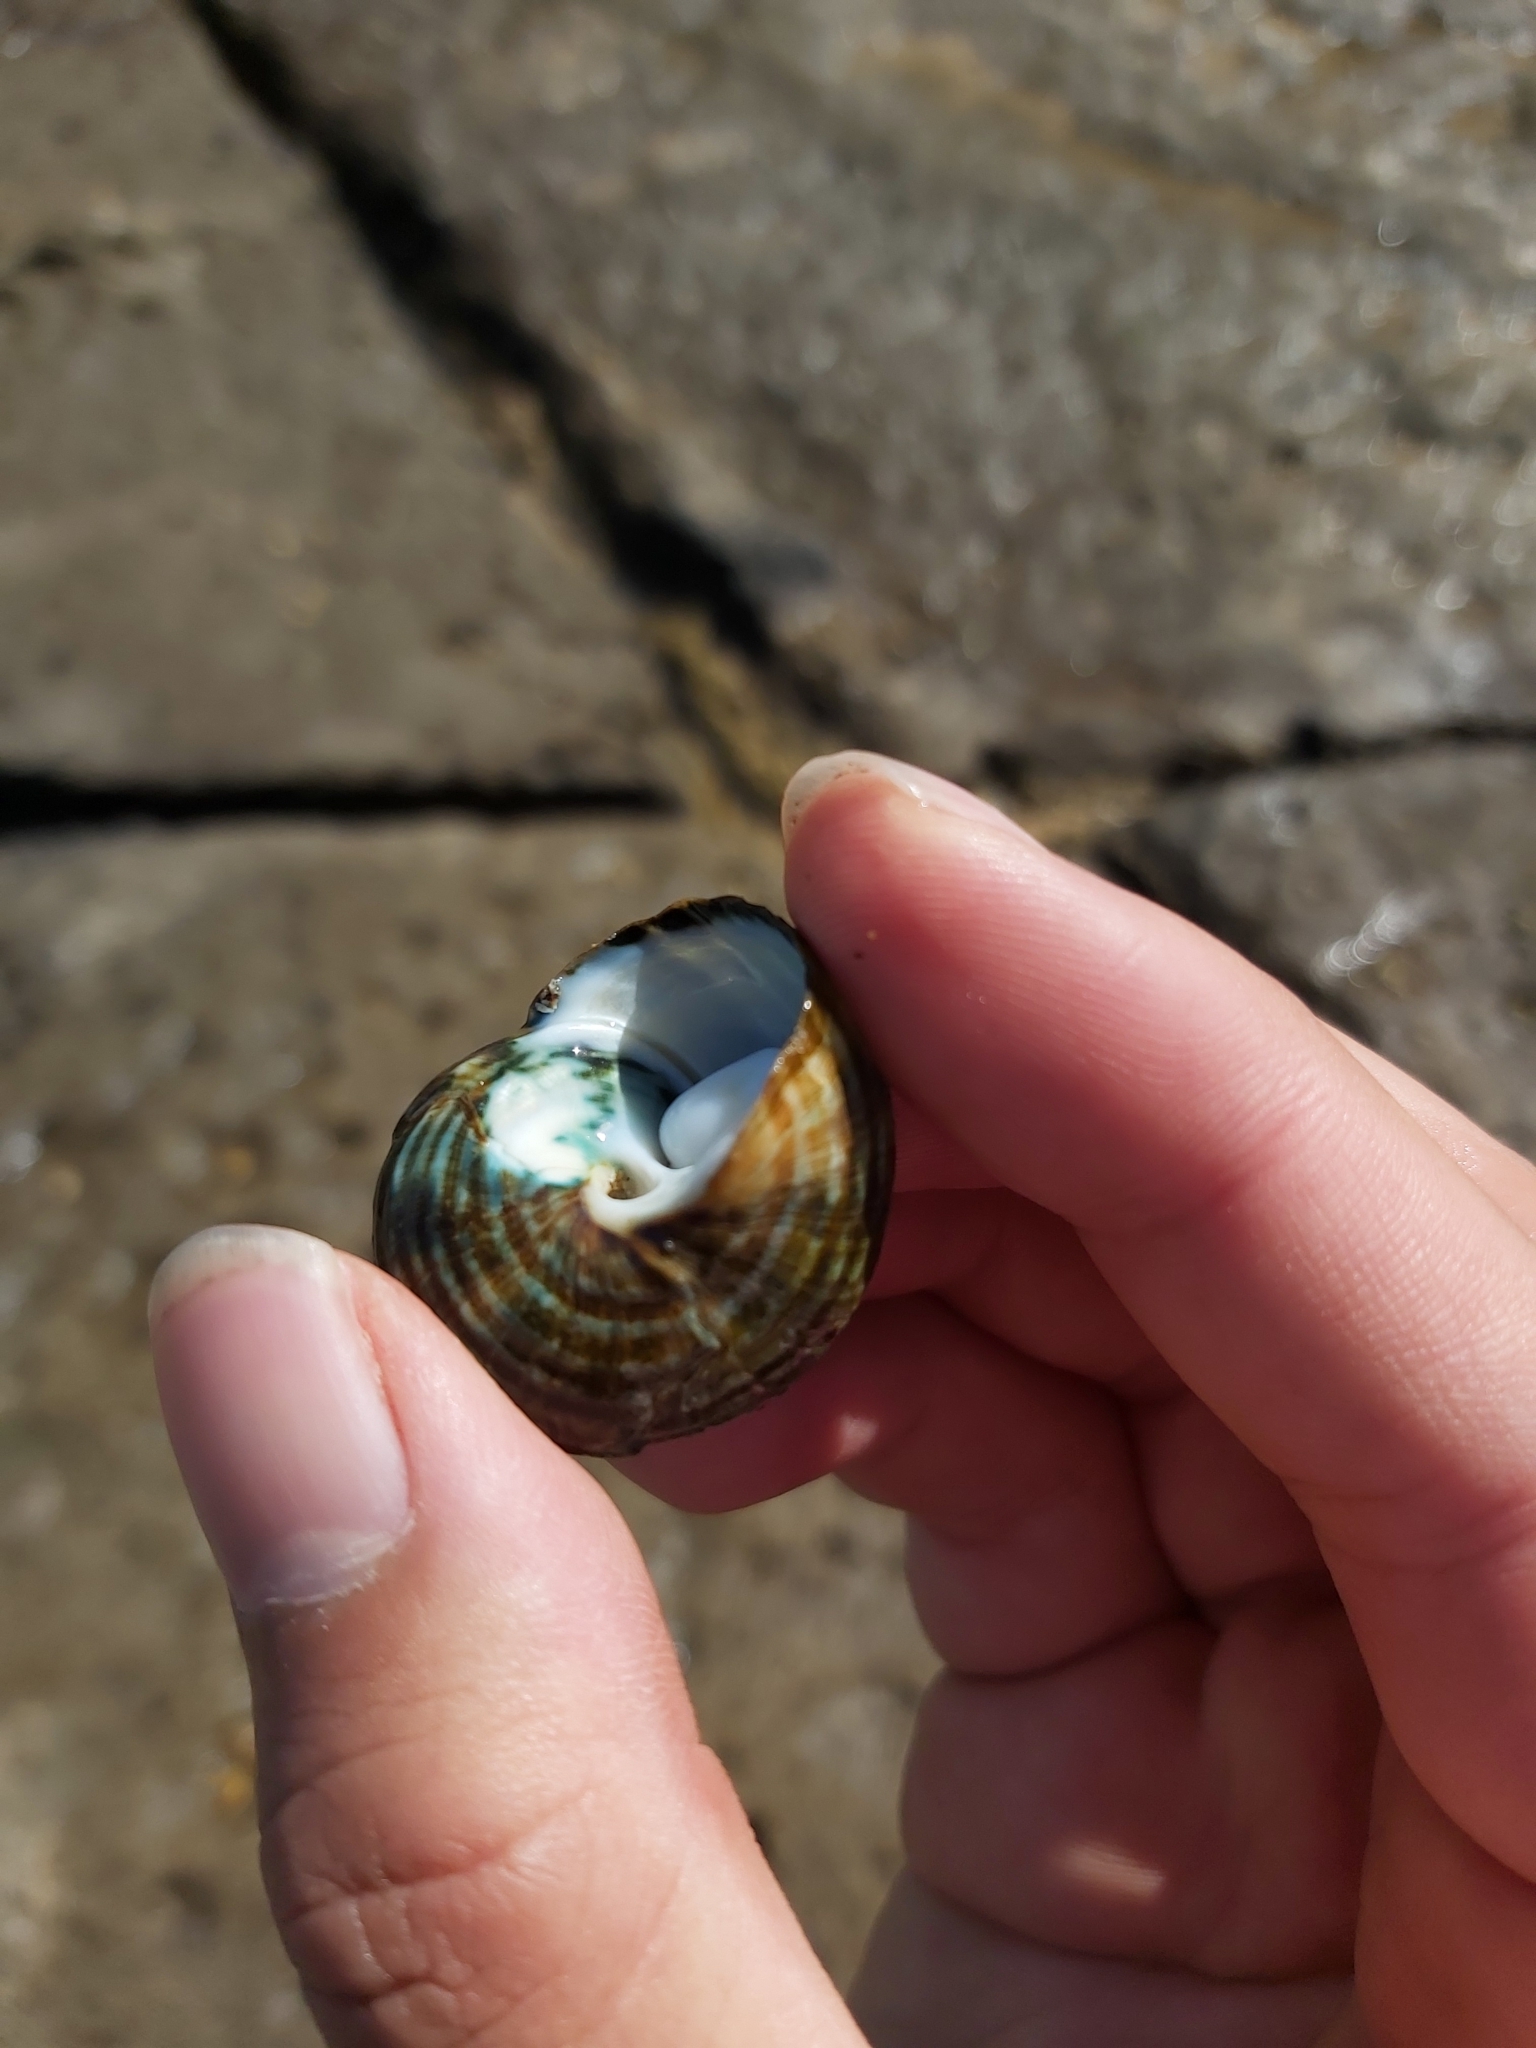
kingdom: Animalia
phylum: Mollusca
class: Gastropoda
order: Trochida
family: Turbinidae
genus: Lunella
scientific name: Lunella undulata
